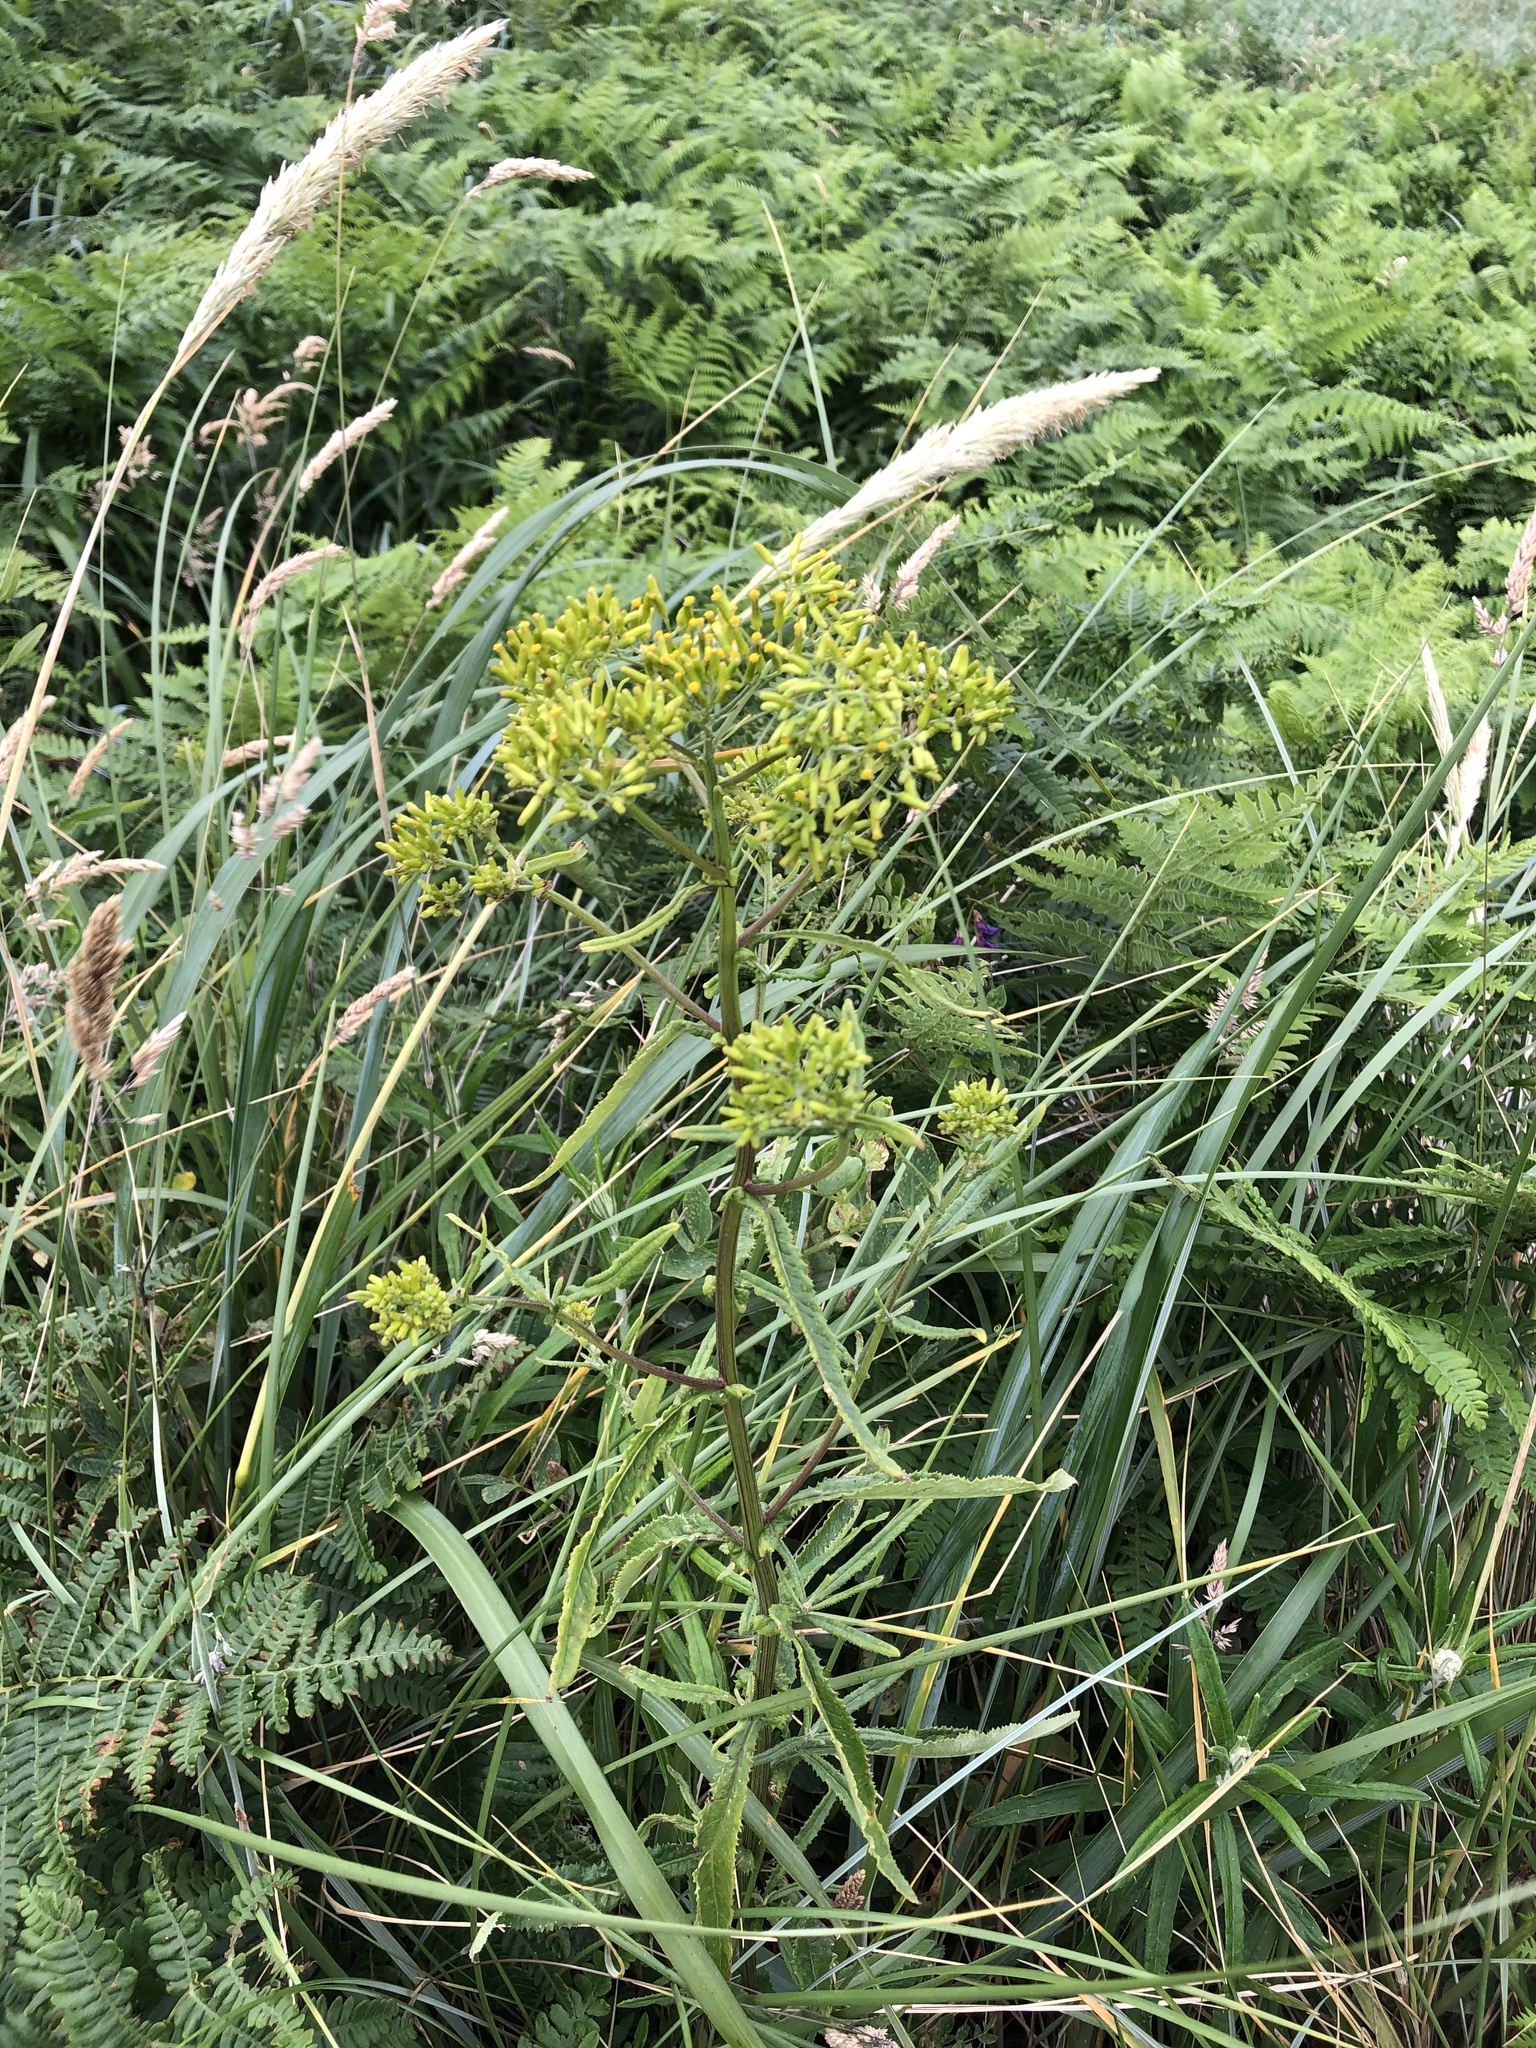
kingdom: Plantae
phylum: Tracheophyta
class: Magnoliopsida
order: Asterales
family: Asteraceae
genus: Senecio
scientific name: Senecio minimus
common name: Toothed fireweed
